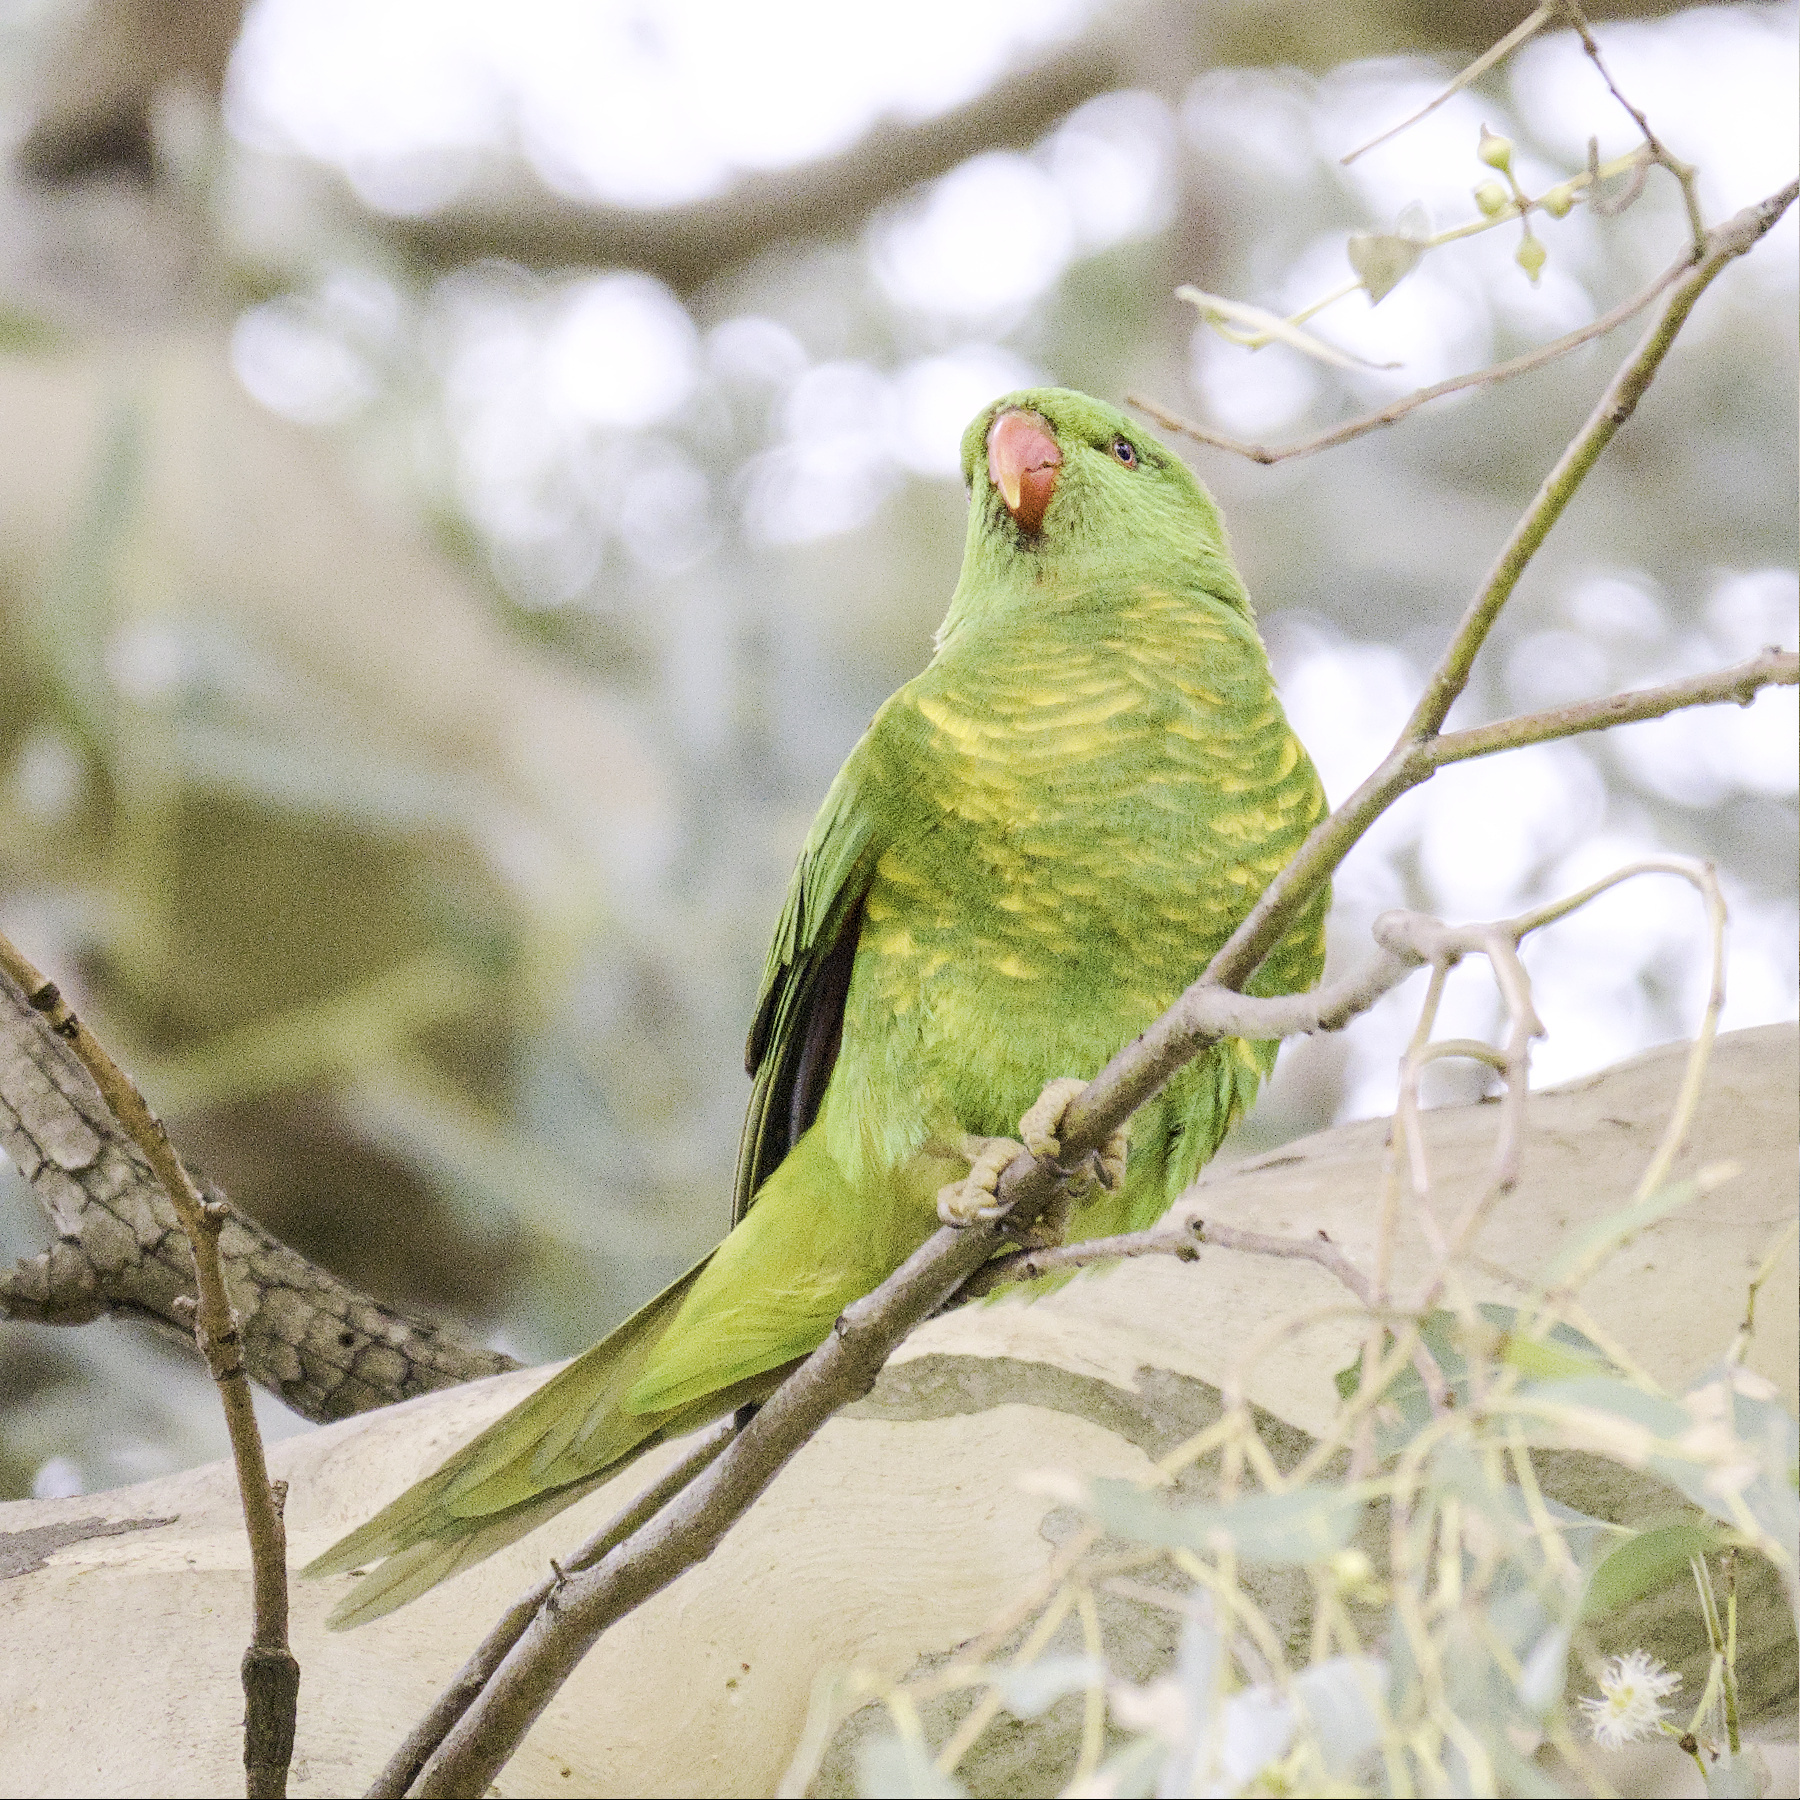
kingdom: Animalia
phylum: Chordata
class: Aves
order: Psittaciformes
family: Psittacidae
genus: Trichoglossus
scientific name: Trichoglossus chlorolepidotus
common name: Scaly-breasted lorikeet
